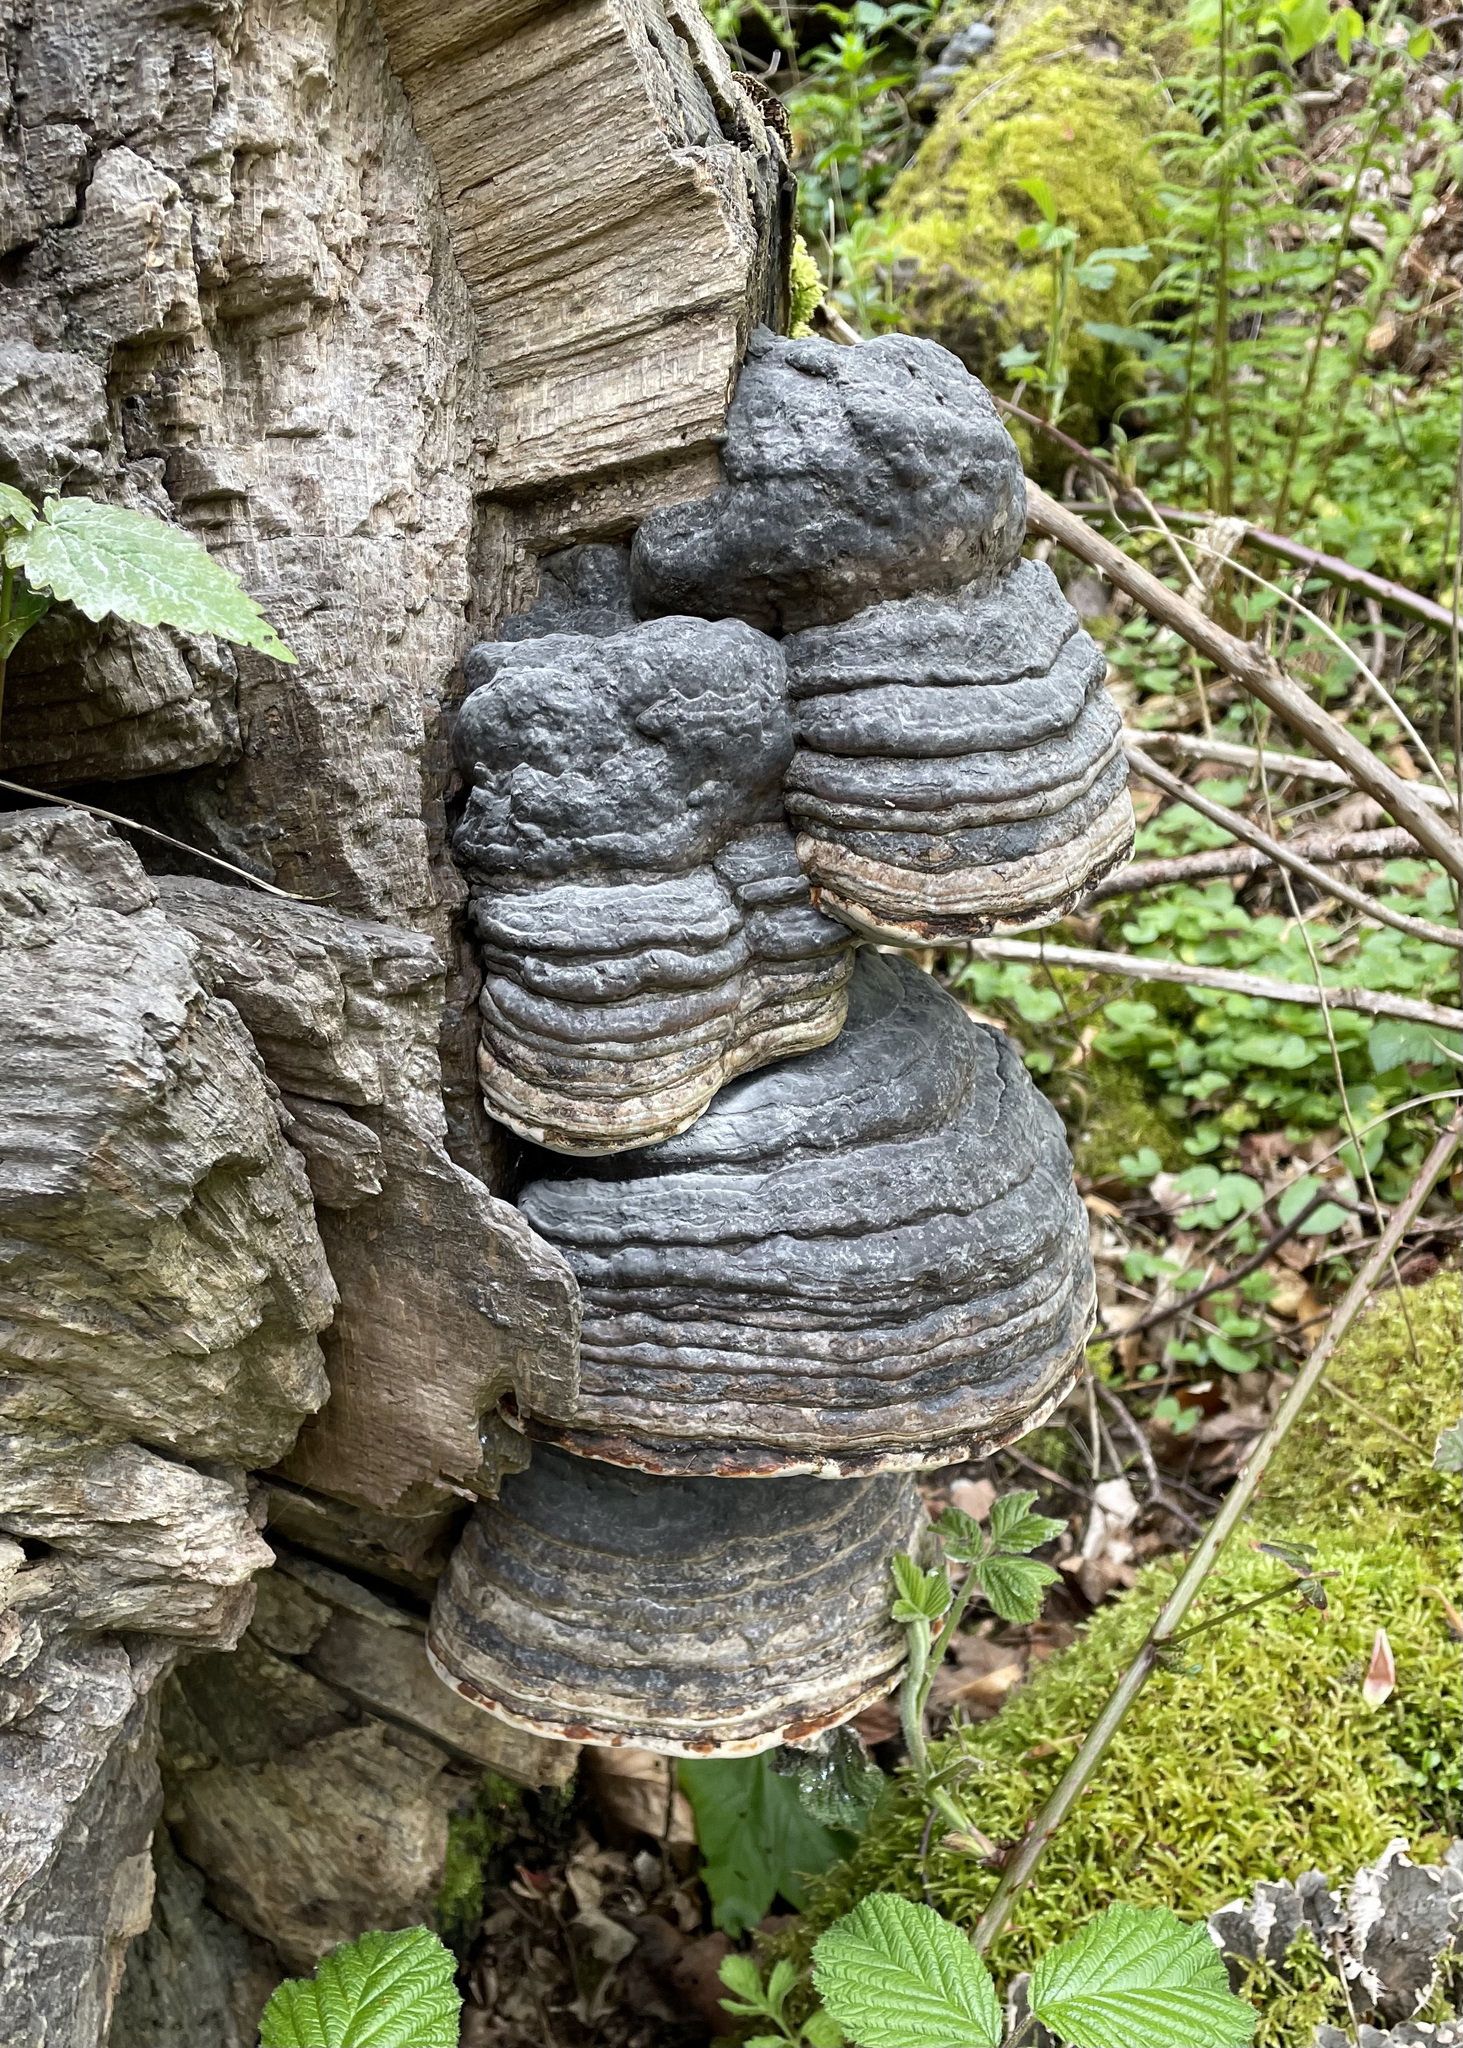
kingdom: Fungi
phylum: Basidiomycota
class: Agaricomycetes
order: Polyporales
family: Polyporaceae
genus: Fomes
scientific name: Fomes fomentarius
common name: Hoof fungus
